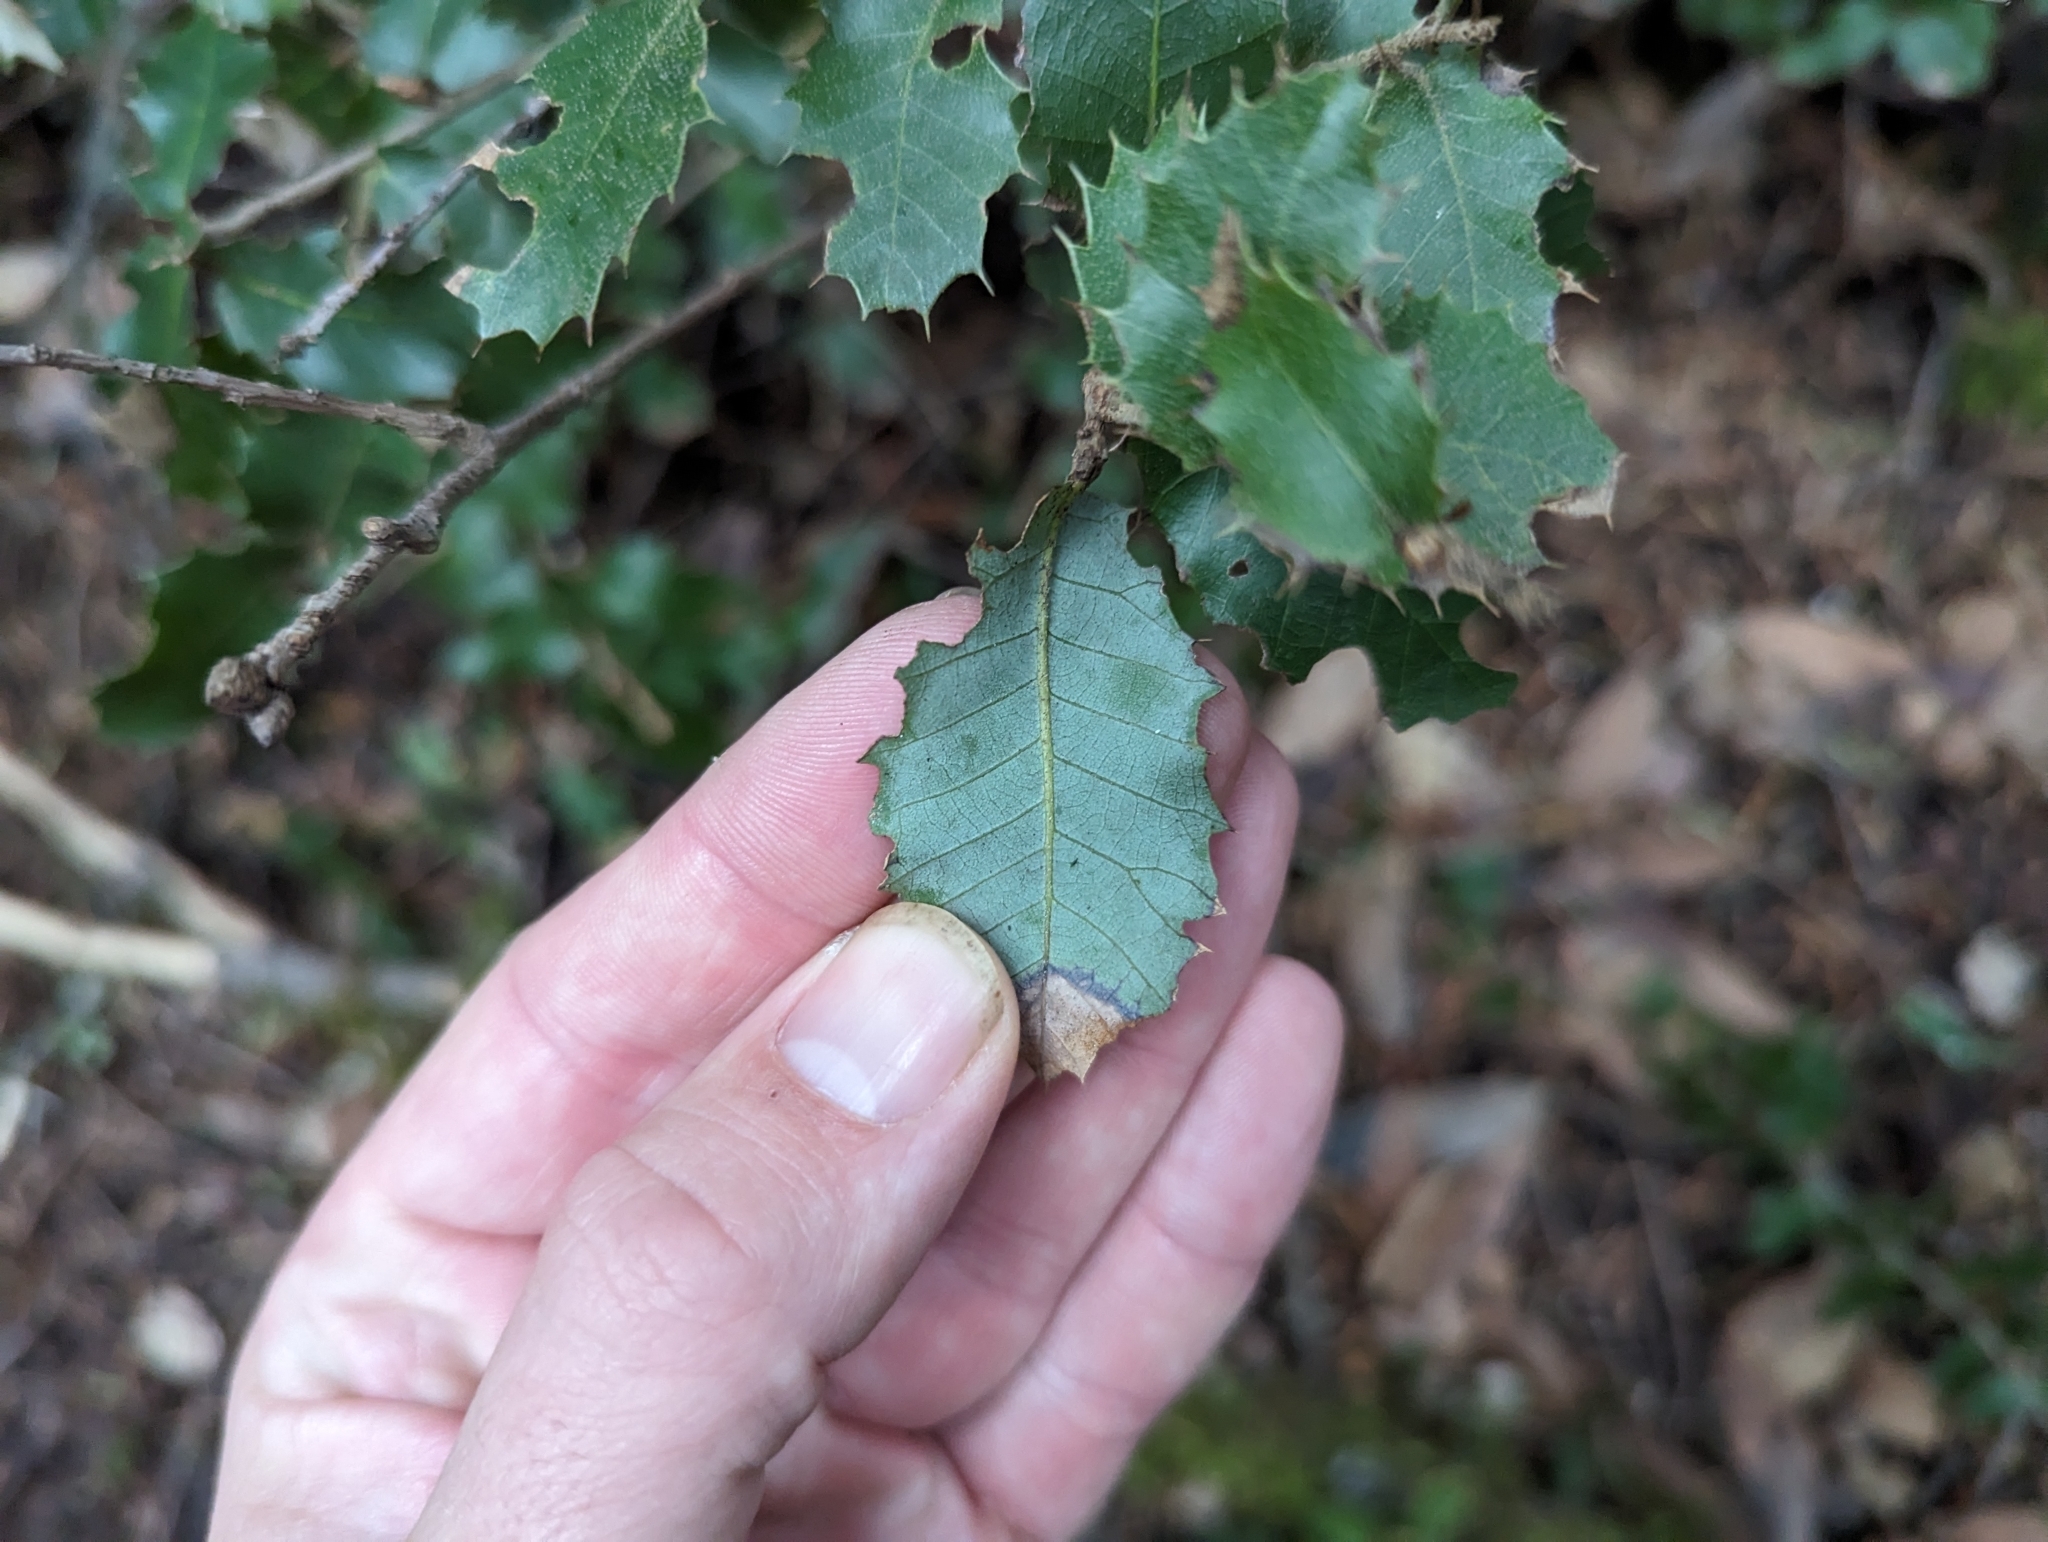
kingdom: Plantae
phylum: Tracheophyta
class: Magnoliopsida
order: Fagales
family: Fagaceae
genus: Quercus
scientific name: Quercus chrysolepis
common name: Canyon live oak
